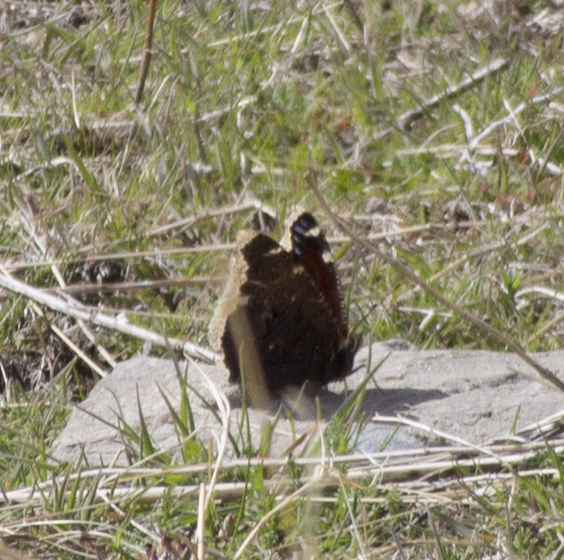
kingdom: Animalia
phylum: Arthropoda
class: Insecta
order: Lepidoptera
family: Nymphalidae
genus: Nymphalis
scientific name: Nymphalis antiopa
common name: Camberwell beauty
